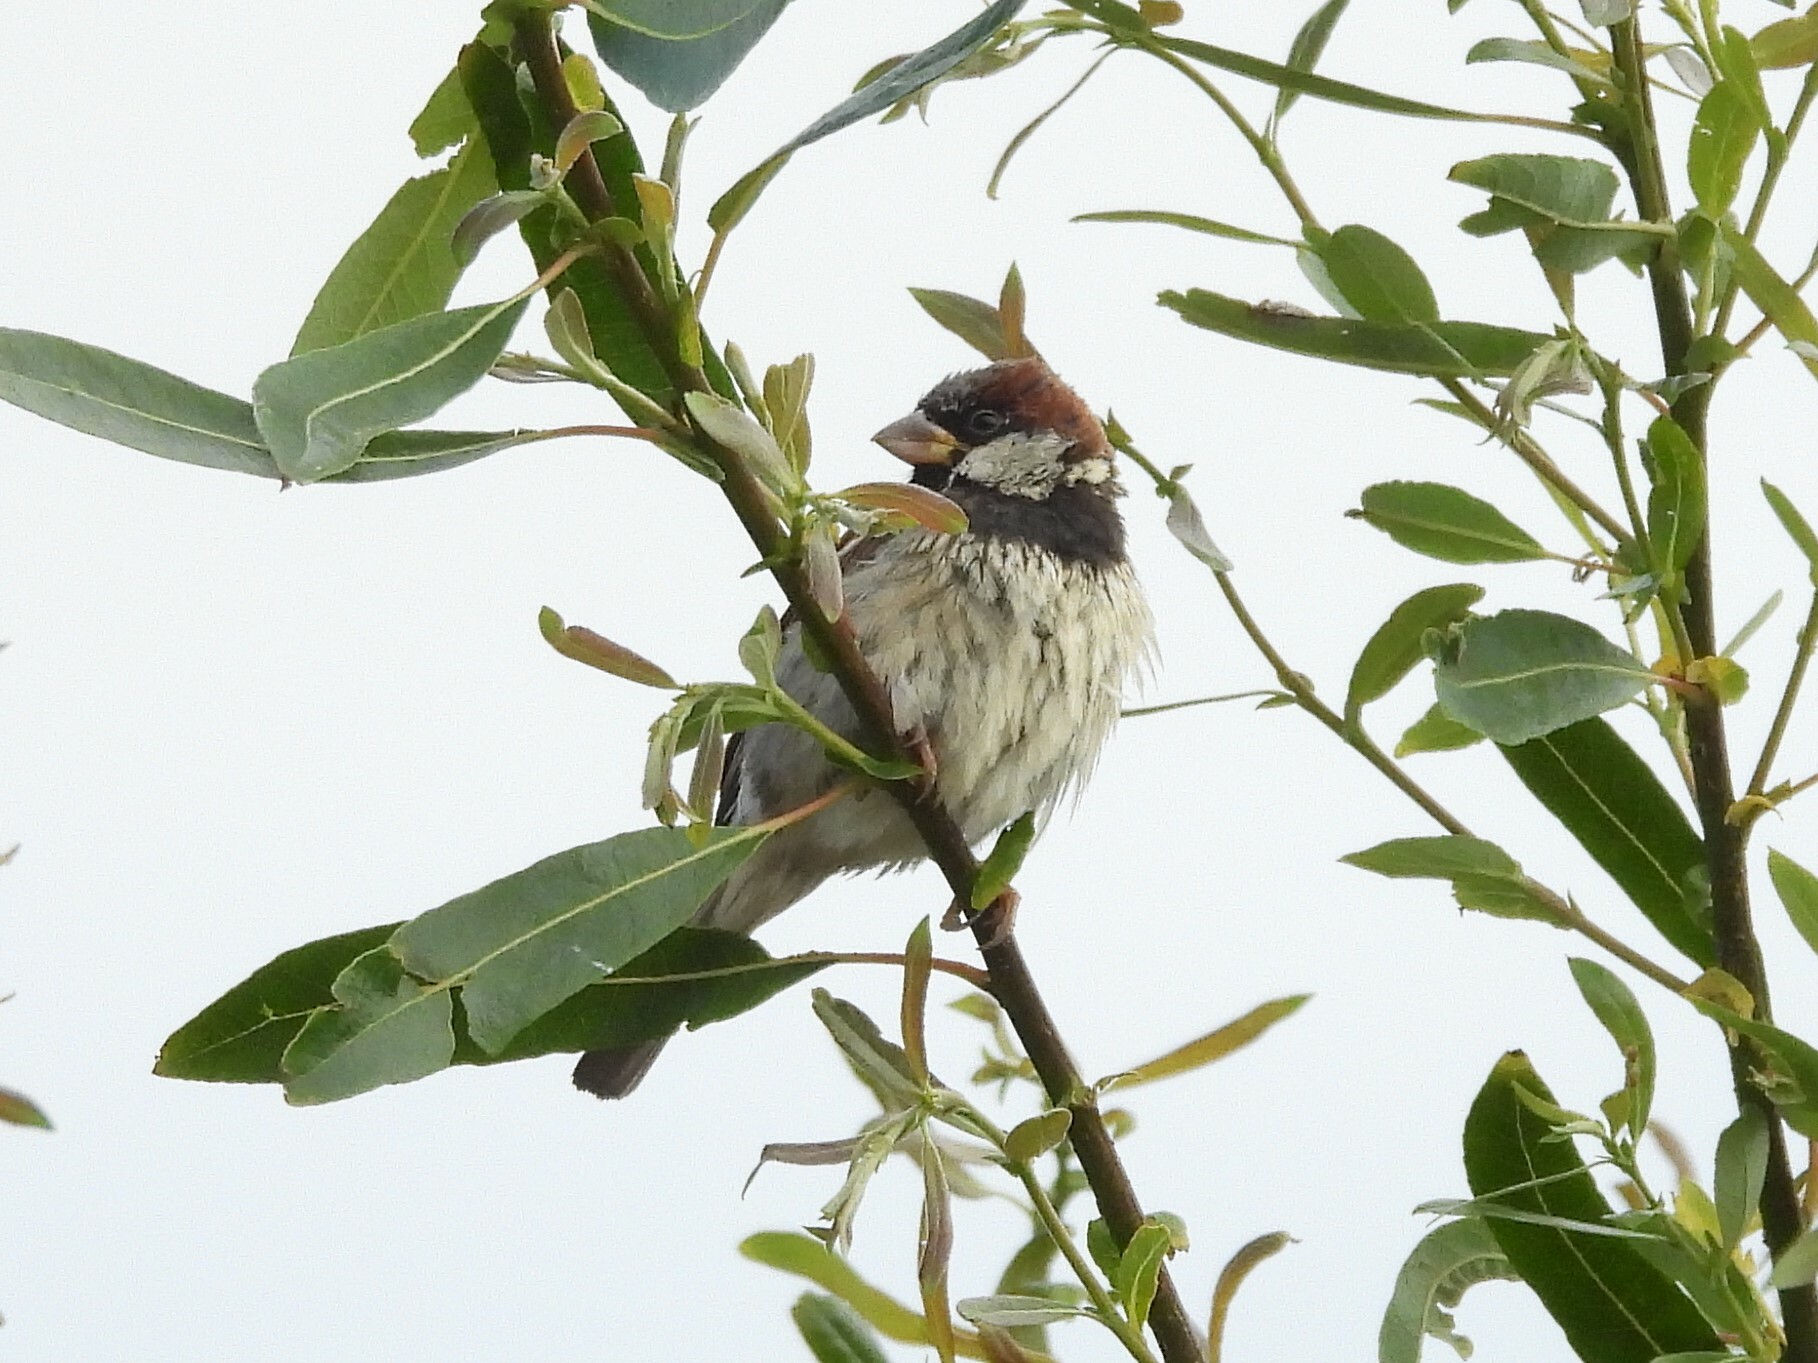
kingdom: Animalia
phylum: Chordata
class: Aves
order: Passeriformes
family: Passeridae
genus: Passer
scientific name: Passer domesticus
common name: House sparrow
